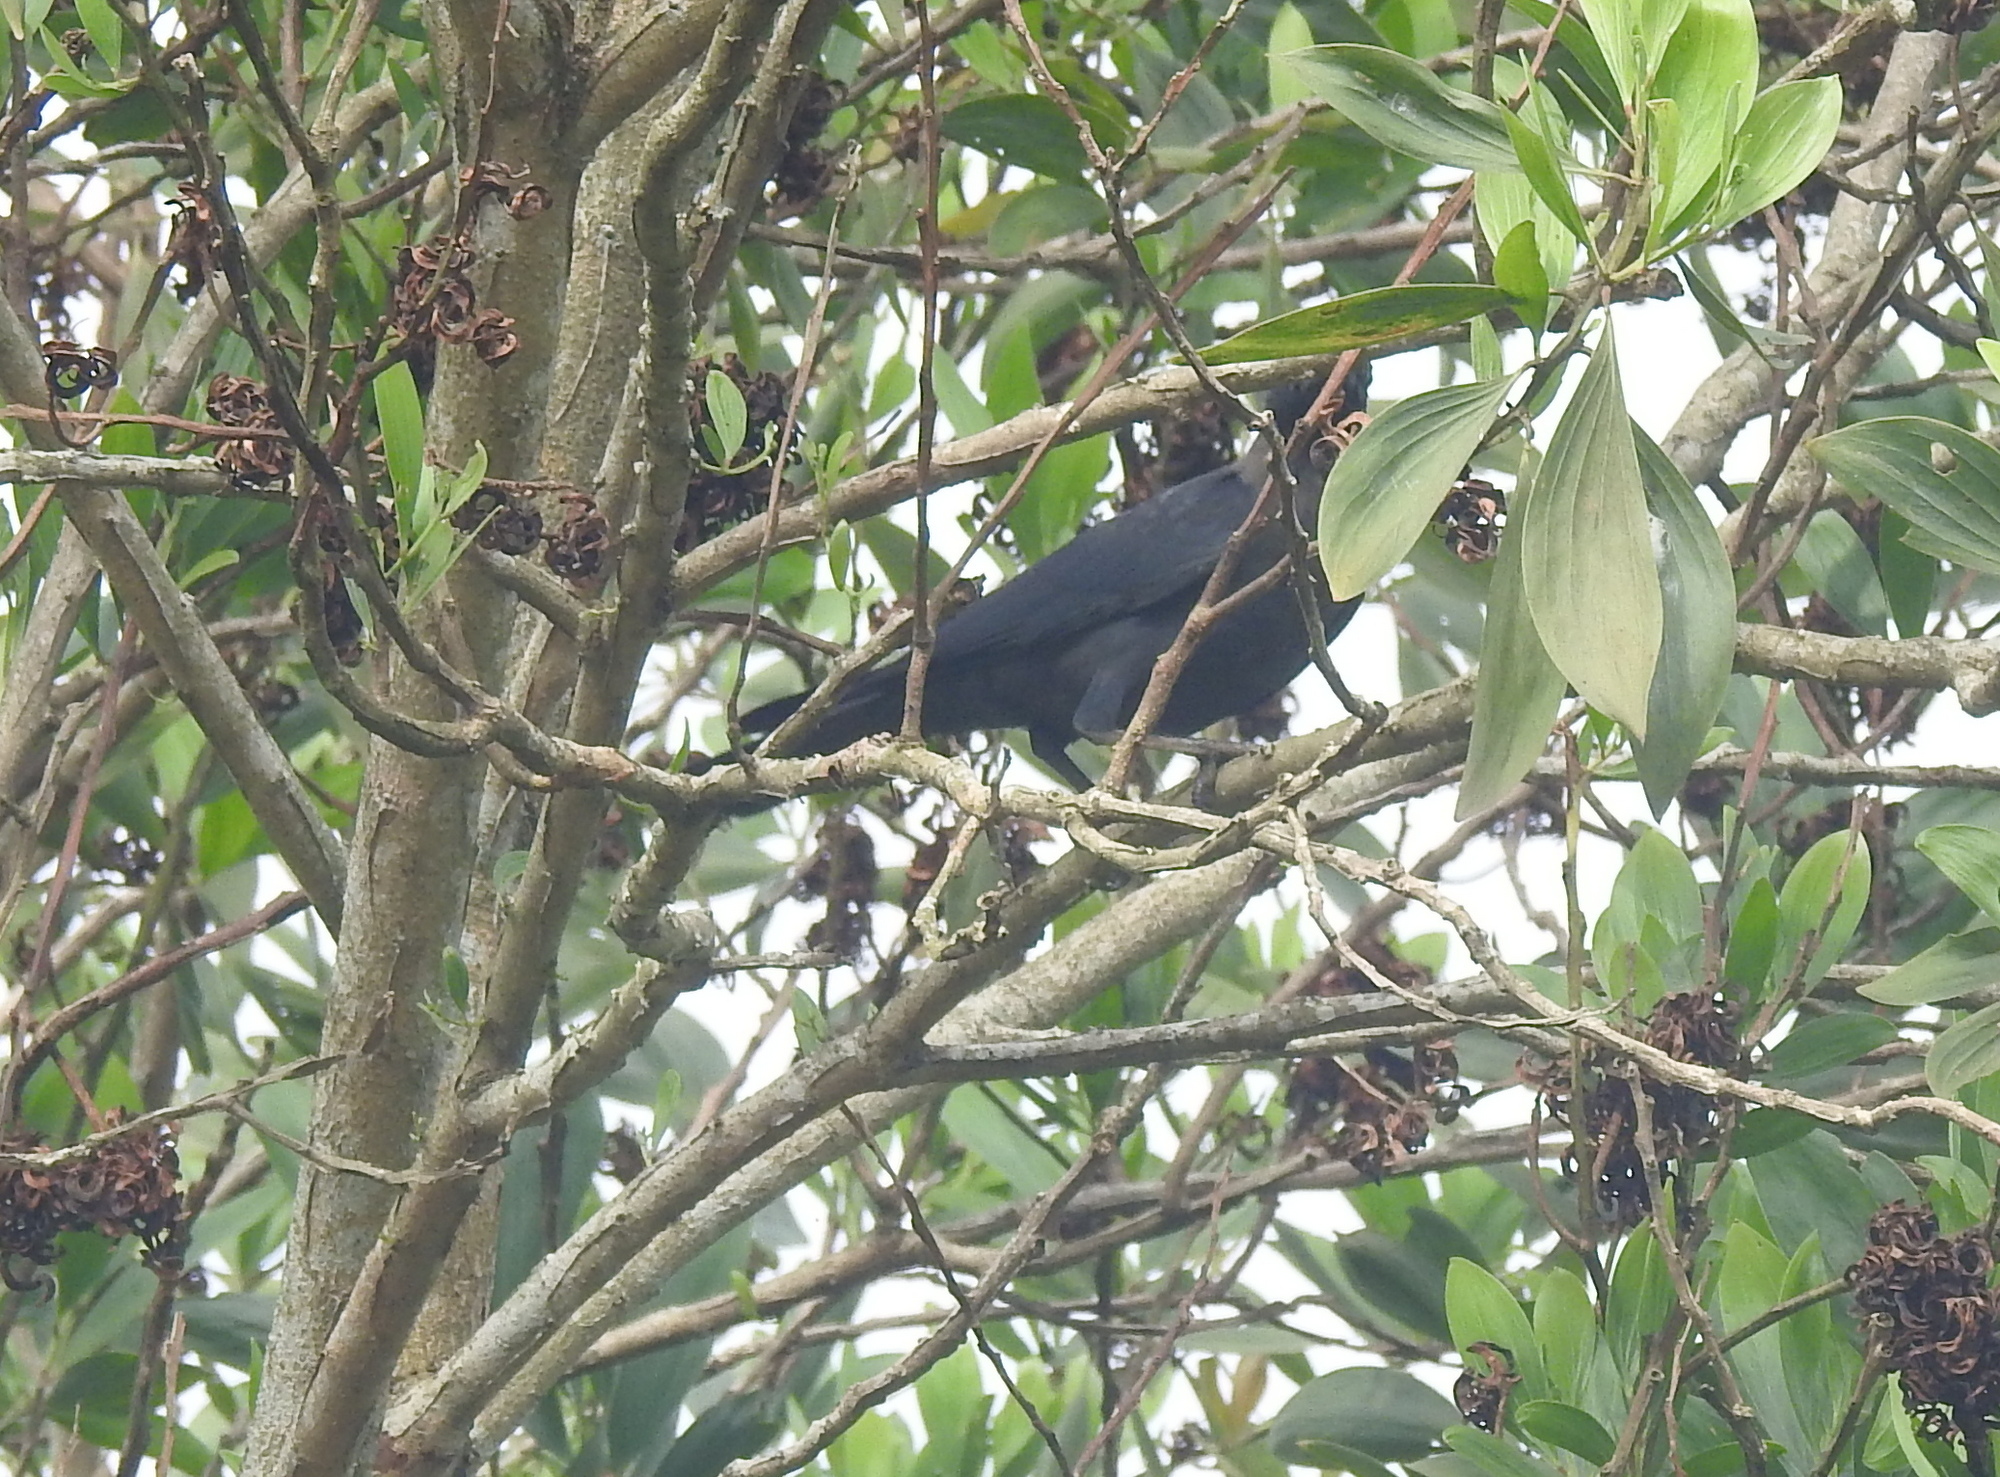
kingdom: Animalia
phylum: Chordata
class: Aves
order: Passeriformes
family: Corvidae
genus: Corvus
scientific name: Corvus splendens
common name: House crow
